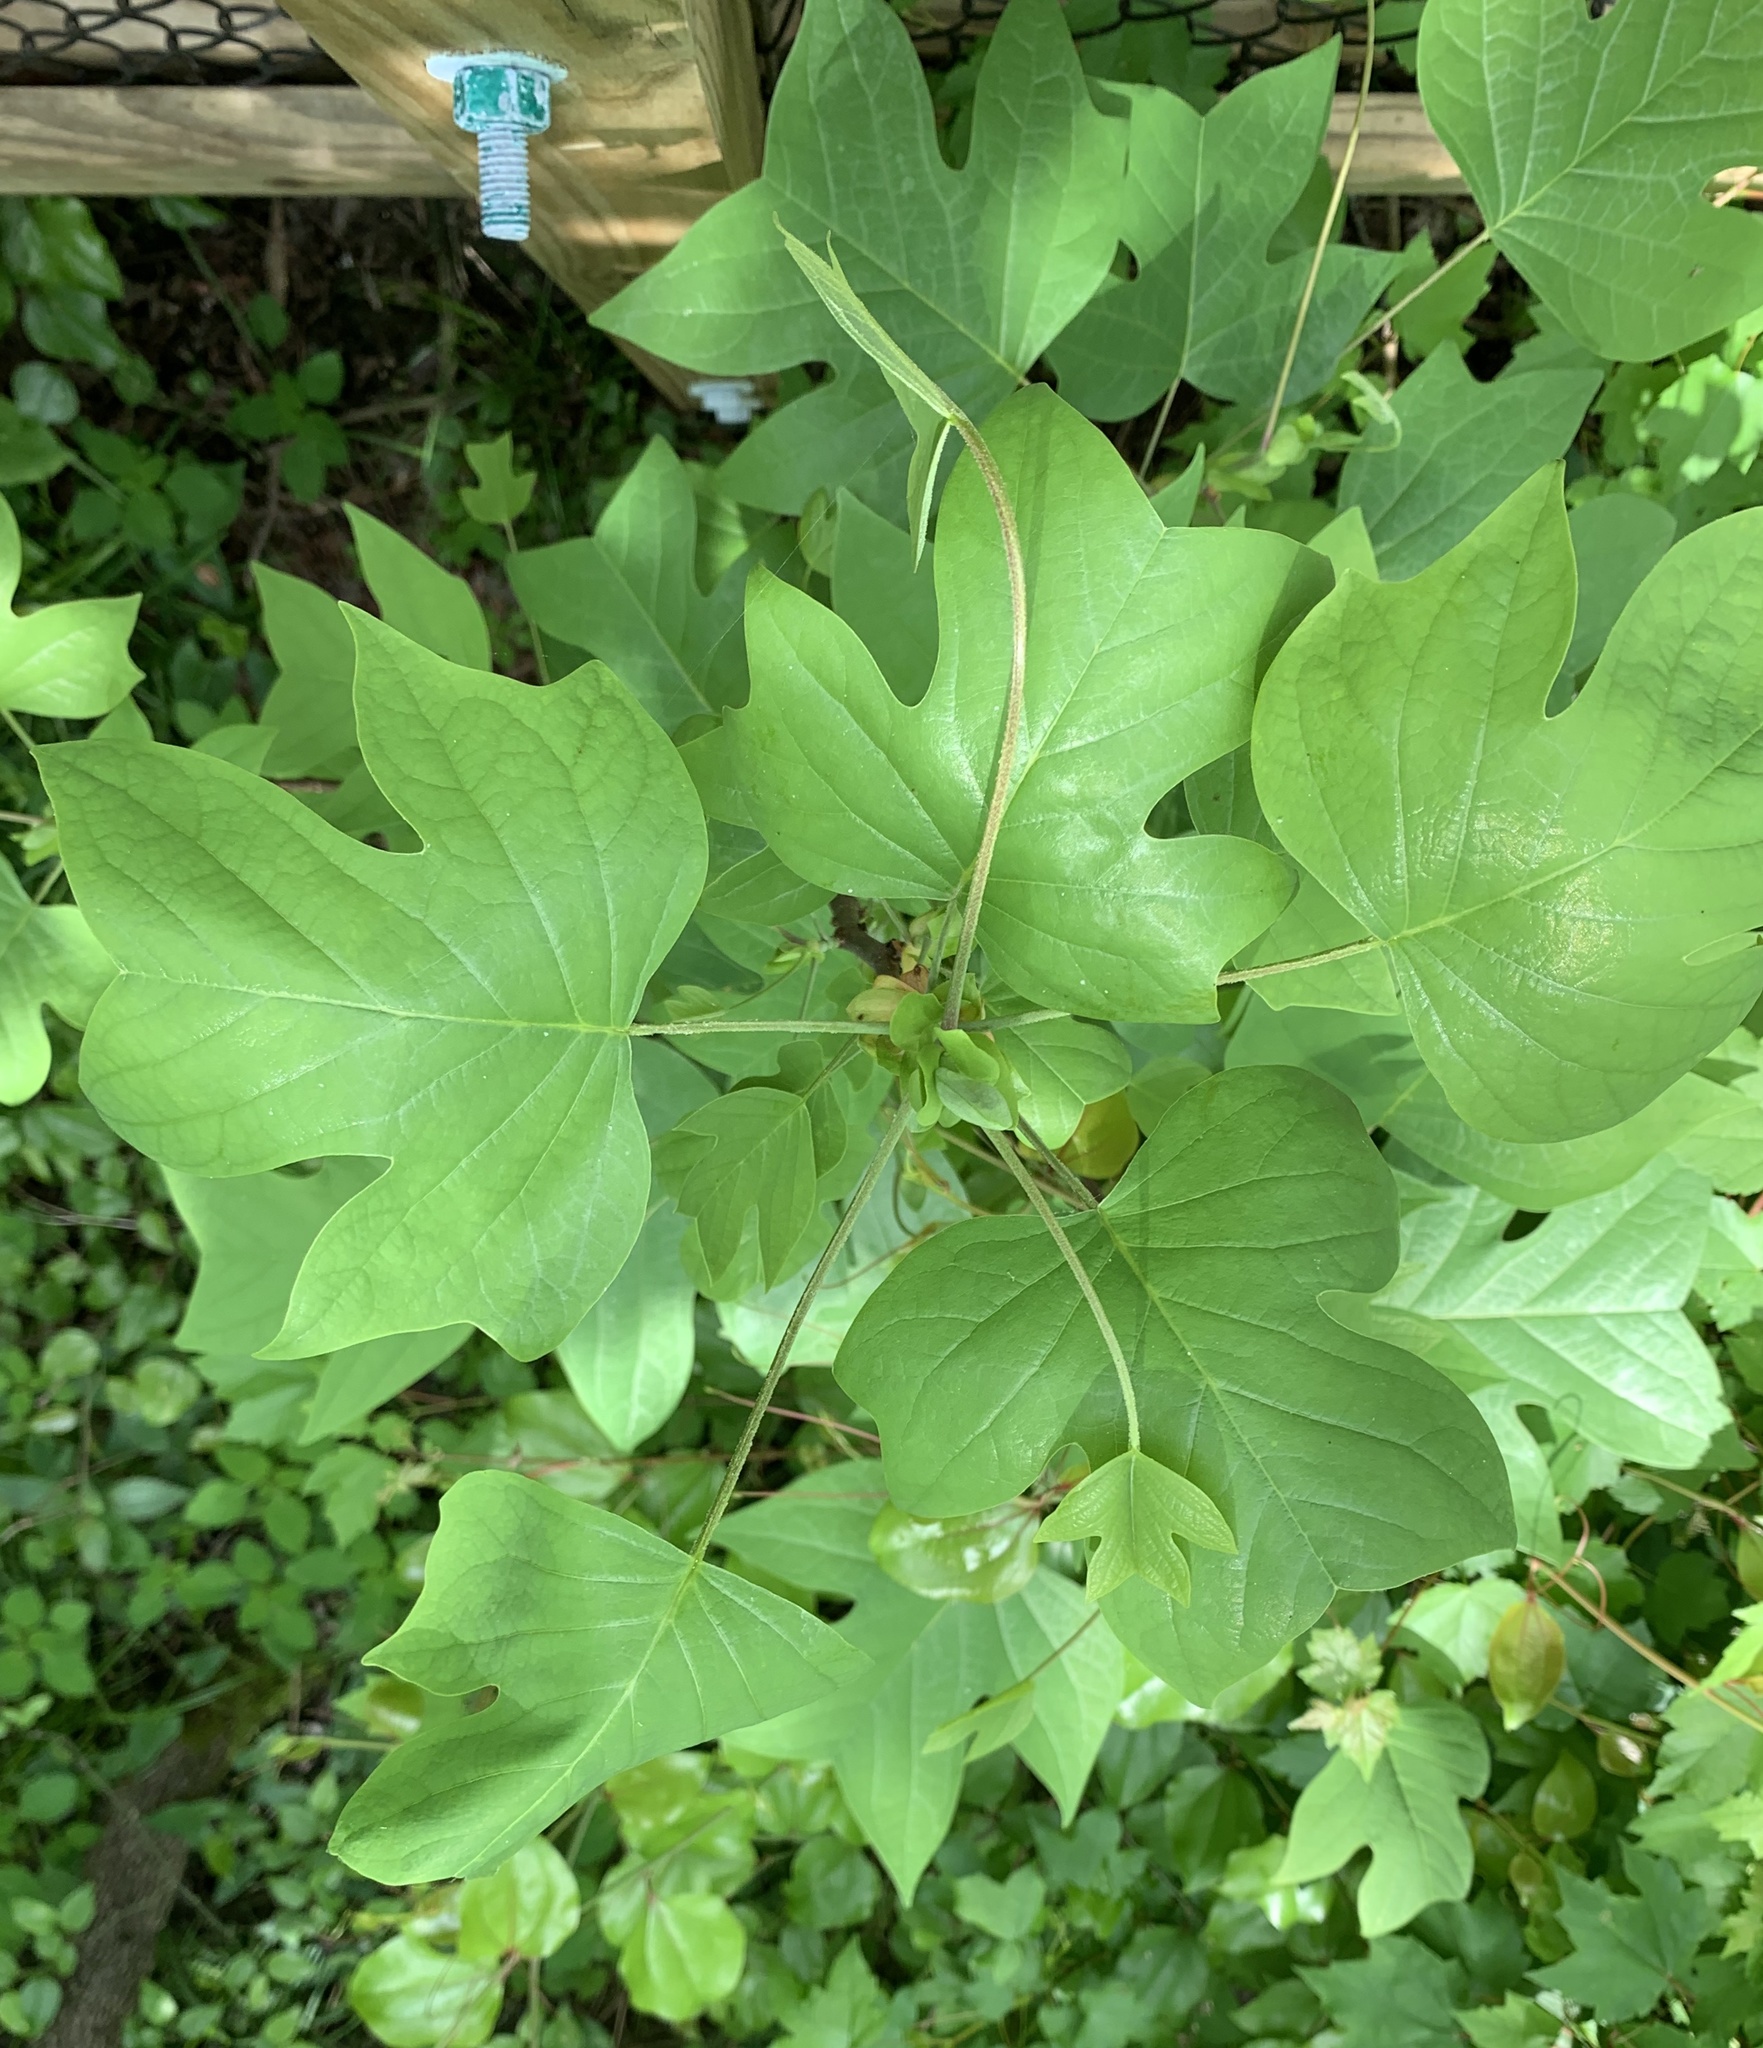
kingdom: Plantae
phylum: Tracheophyta
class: Magnoliopsida
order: Magnoliales
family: Magnoliaceae
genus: Liriodendron
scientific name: Liriodendron tulipifera
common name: Tulip tree
